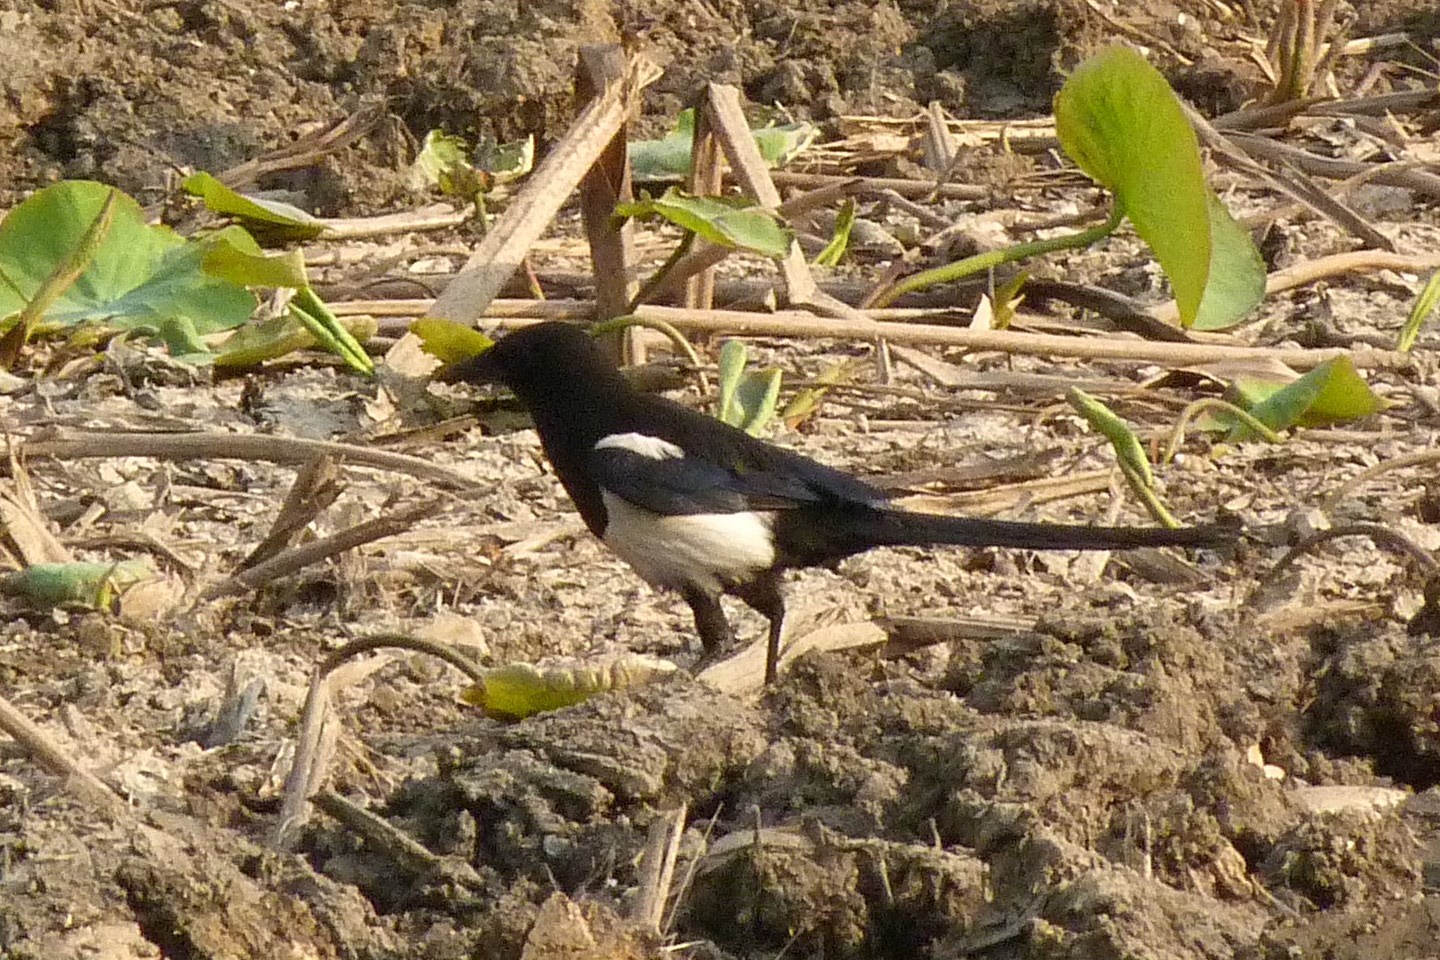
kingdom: Animalia
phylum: Chordata
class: Aves
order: Passeriformes
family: Corvidae
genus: Pica
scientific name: Pica serica
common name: Oriental magpie
